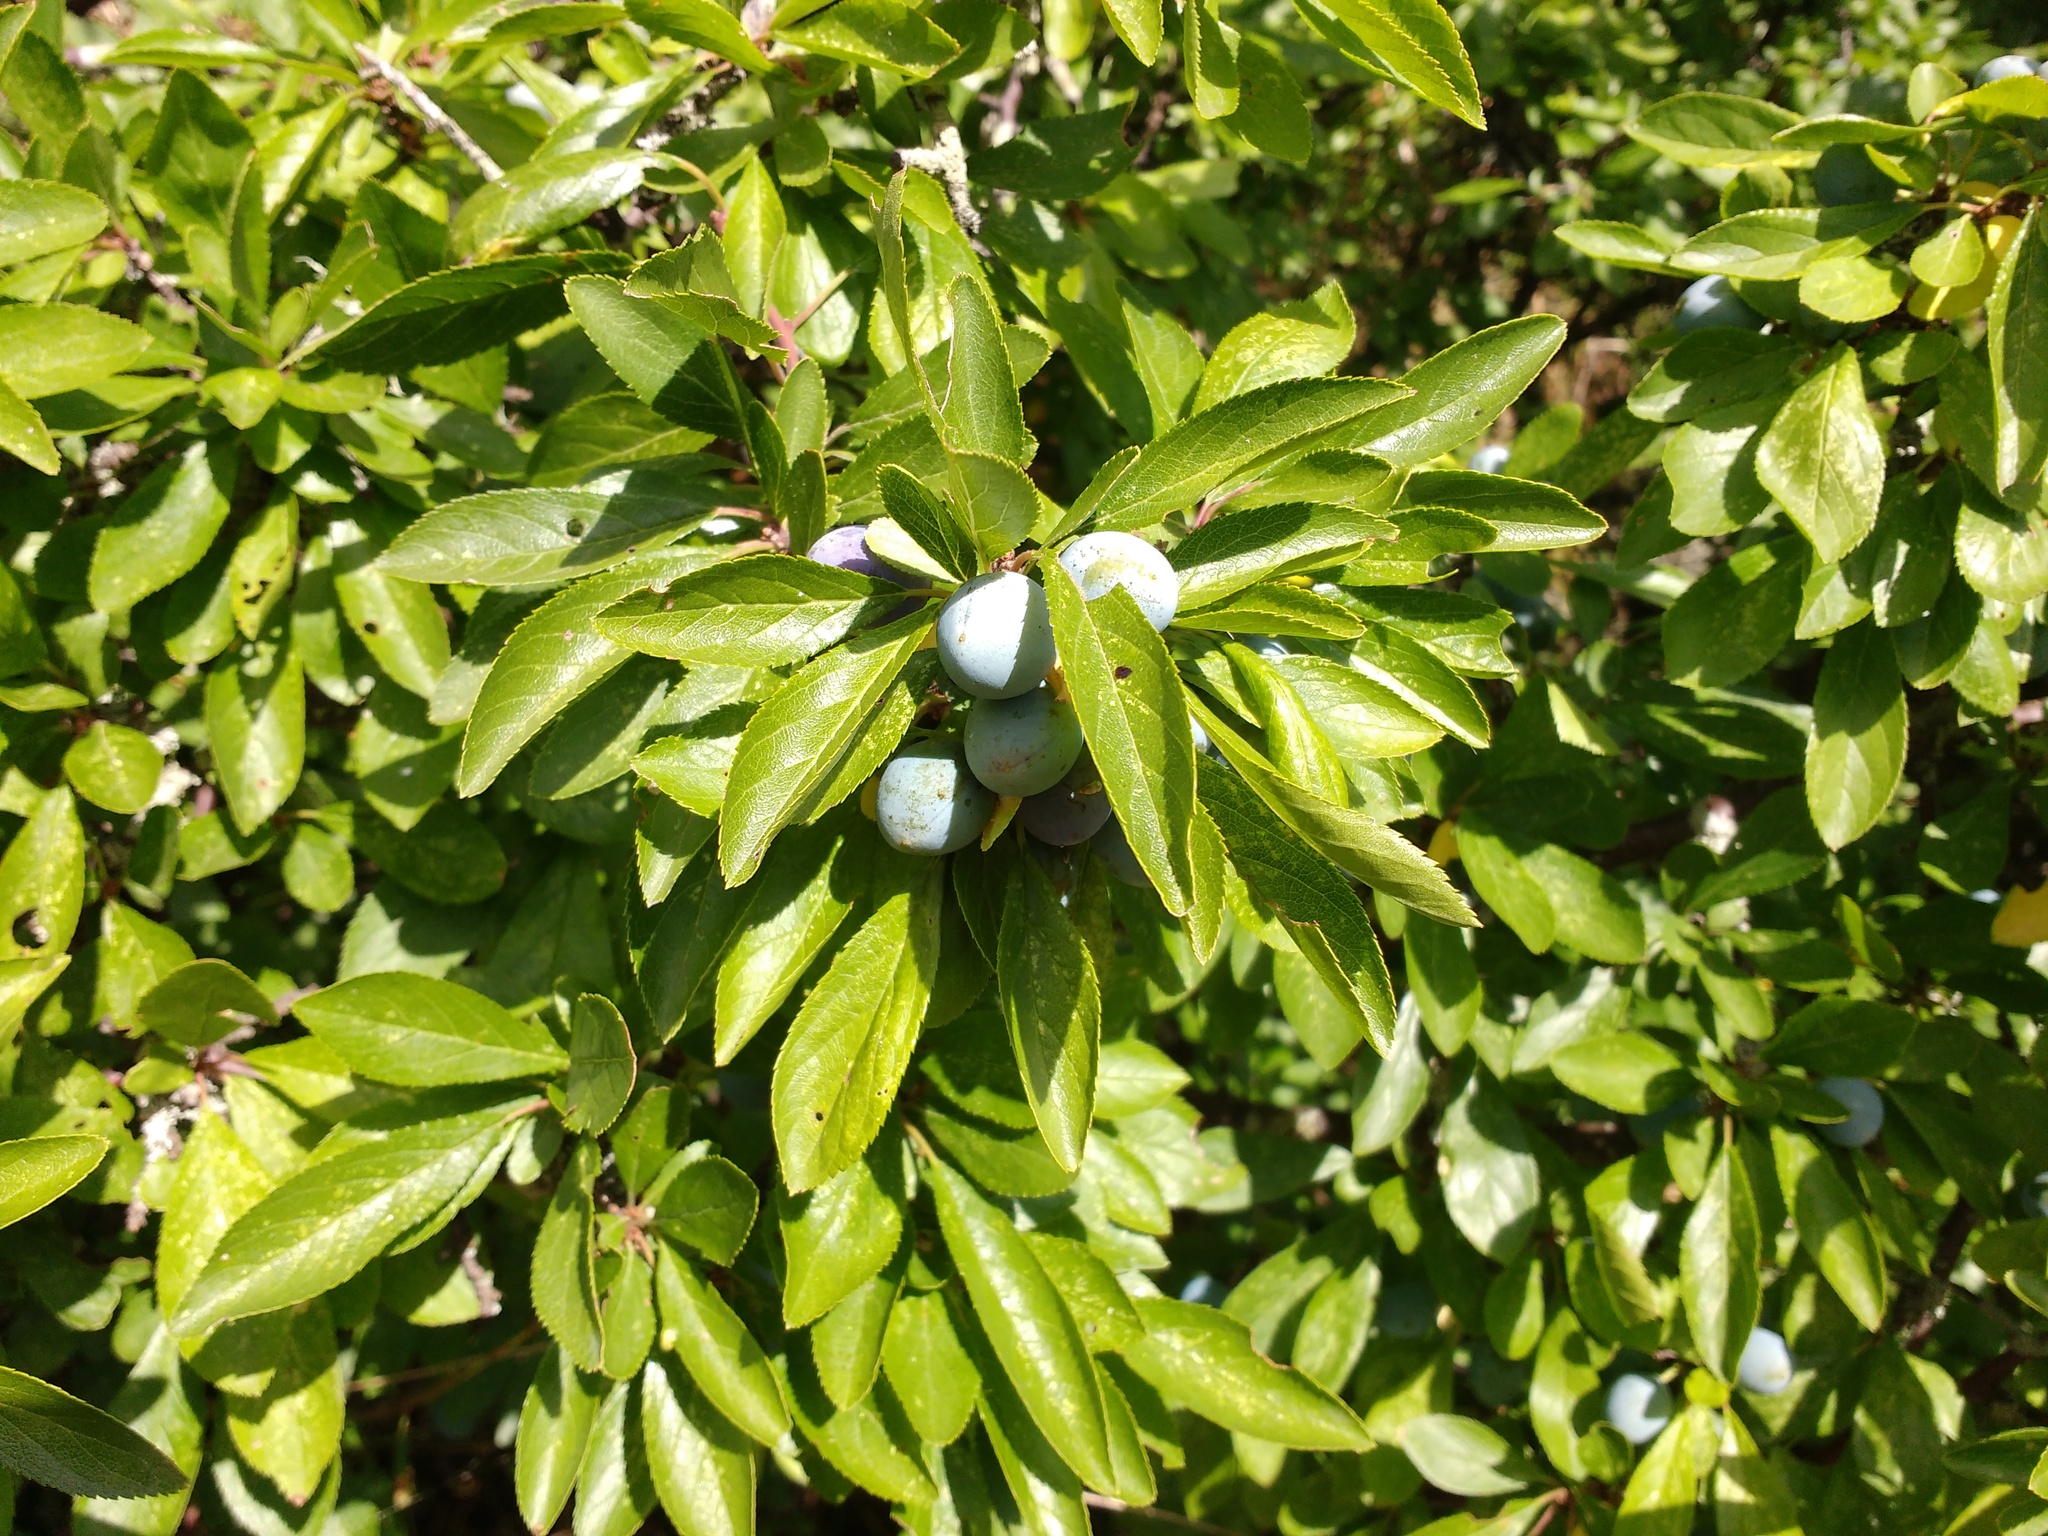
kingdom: Plantae
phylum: Tracheophyta
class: Magnoliopsida
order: Rosales
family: Rosaceae
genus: Prunus
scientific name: Prunus spinosa
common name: Blackthorn
